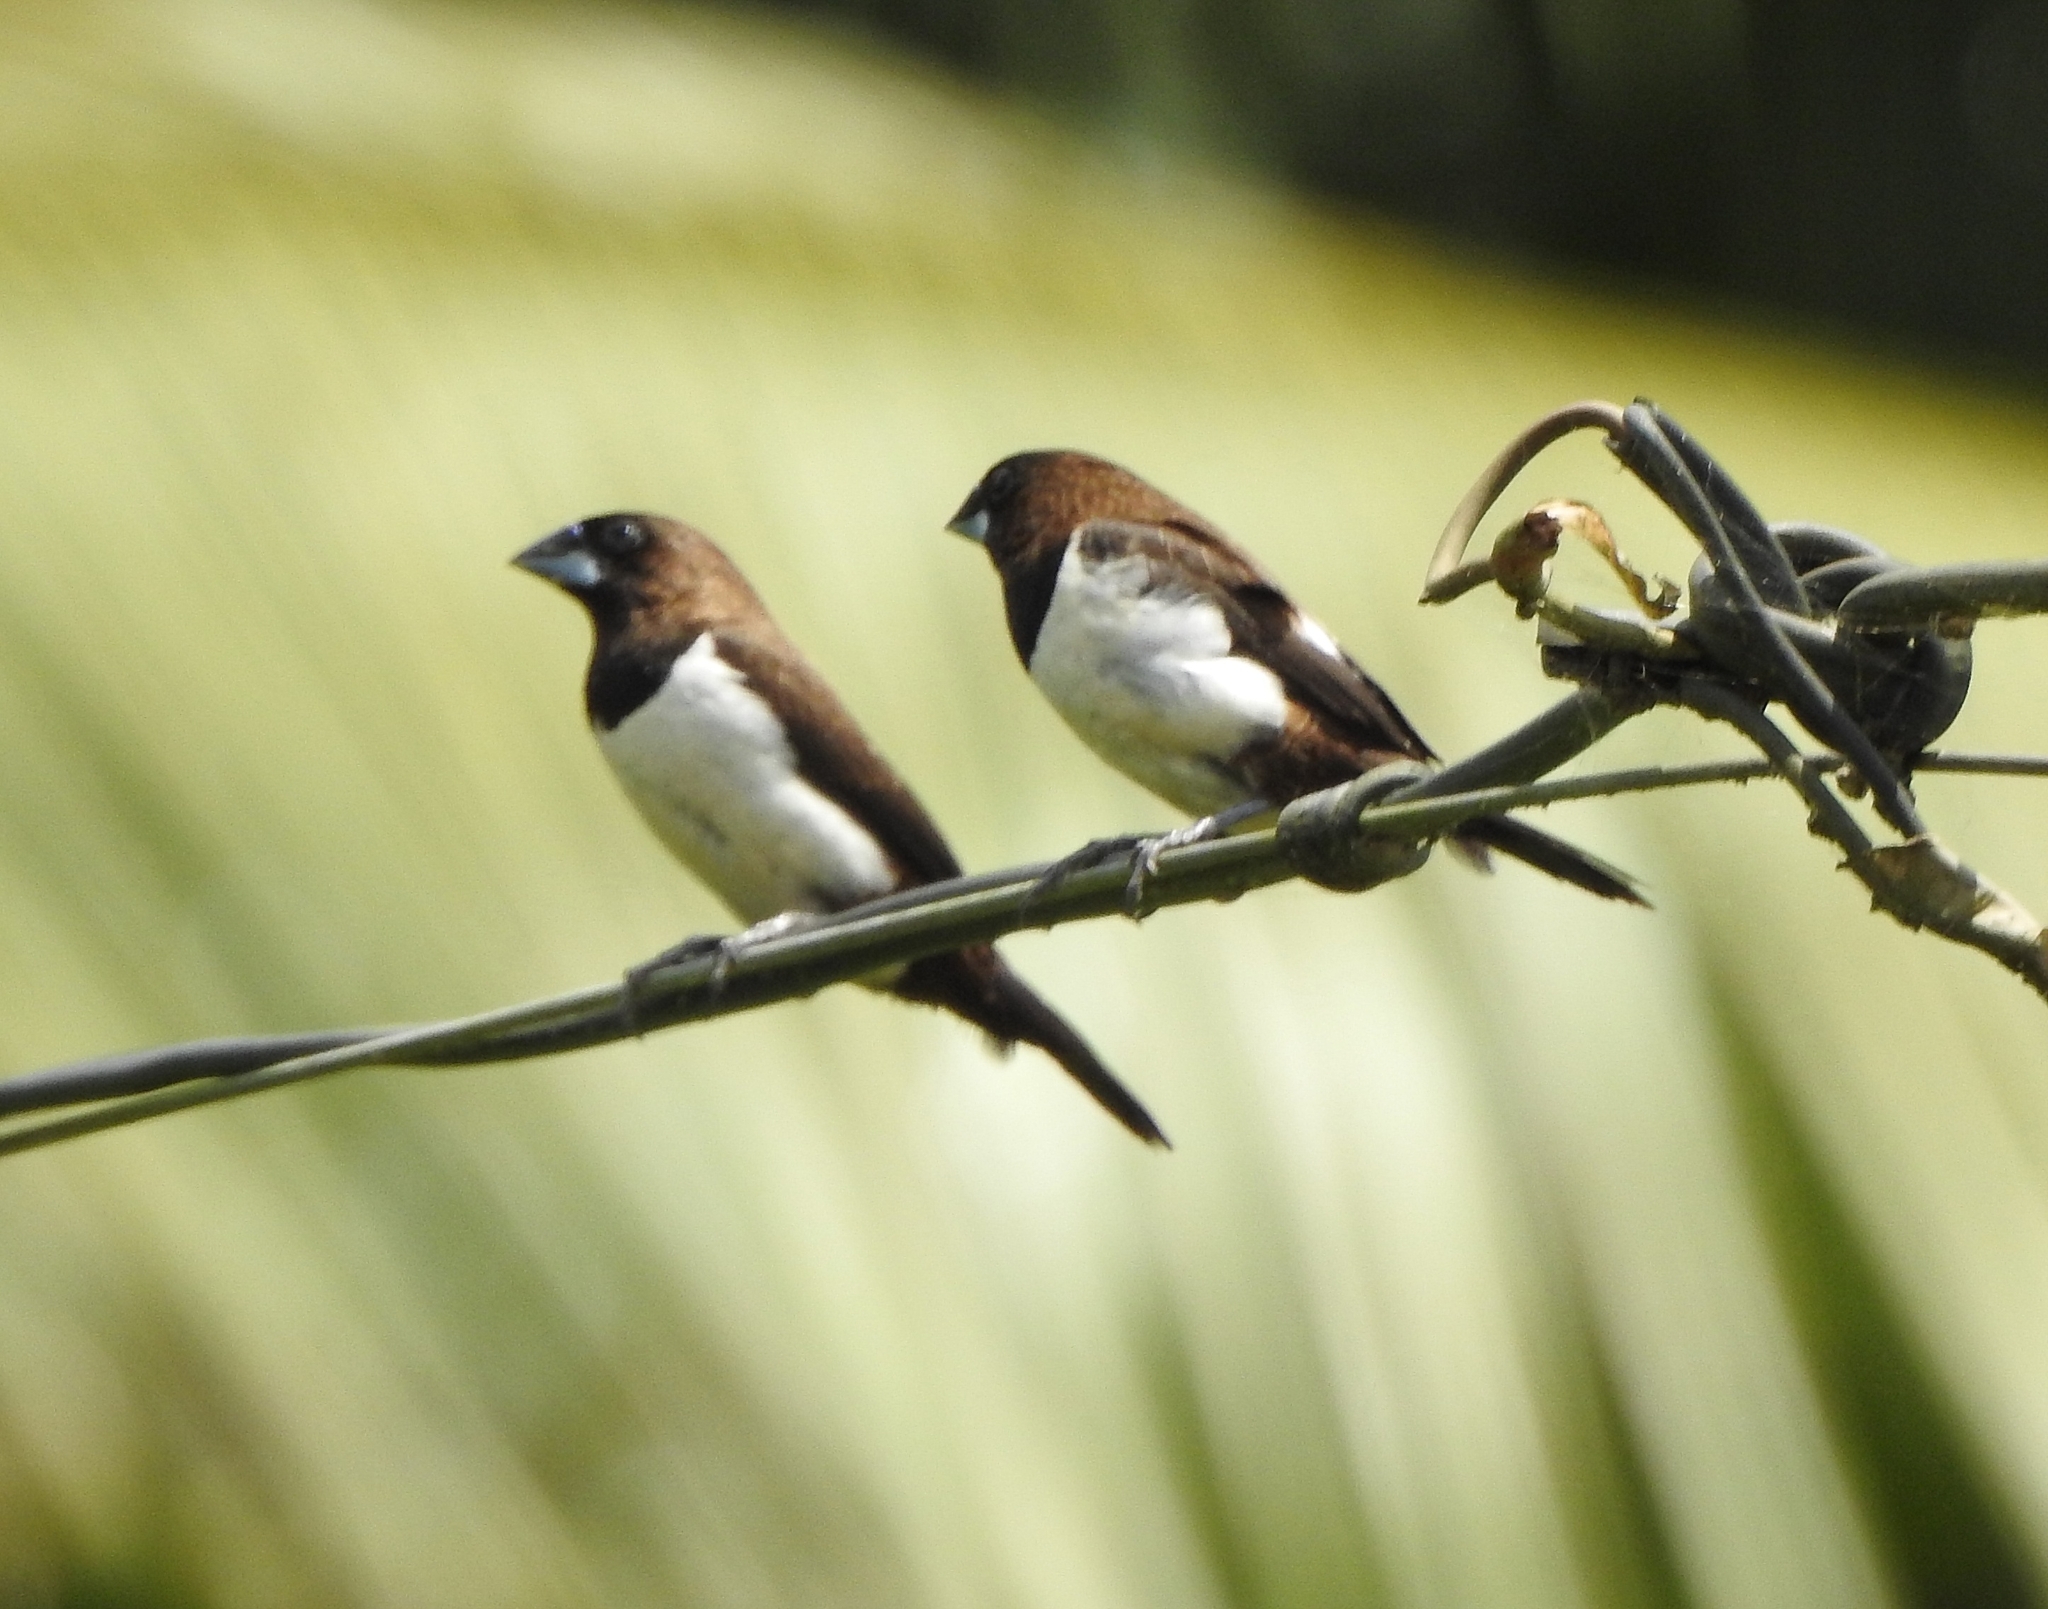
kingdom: Animalia
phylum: Chordata
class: Aves
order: Passeriformes
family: Estrildidae
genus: Lonchura
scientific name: Lonchura striata
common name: White-rumped munia
